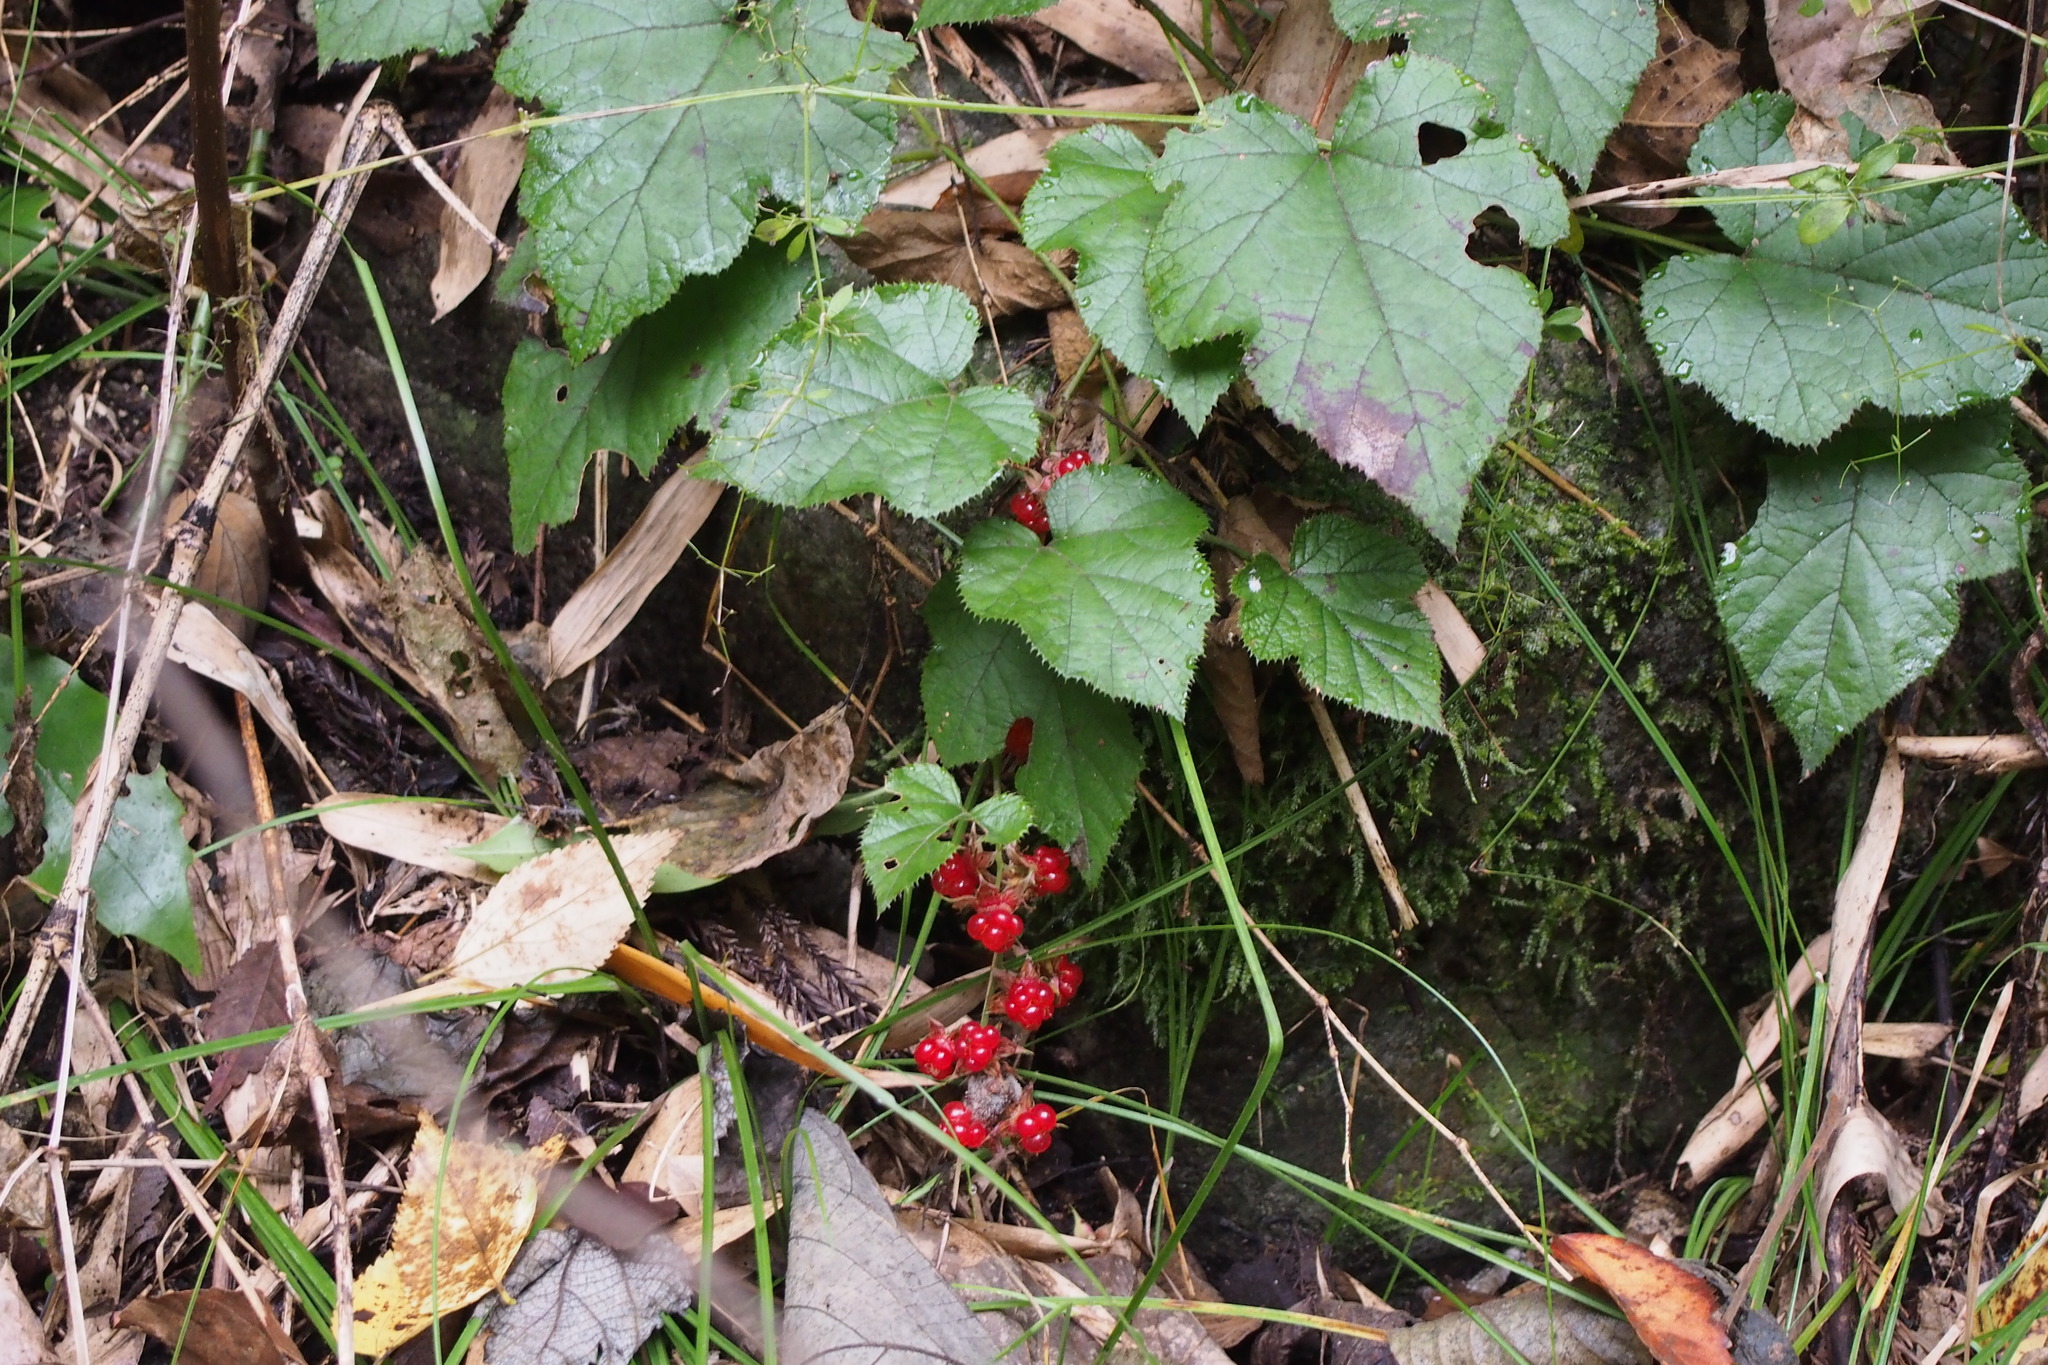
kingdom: Plantae
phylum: Tracheophyta
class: Magnoliopsida
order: Rosales
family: Rosaceae
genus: Rubus
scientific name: Rubus buergeri
